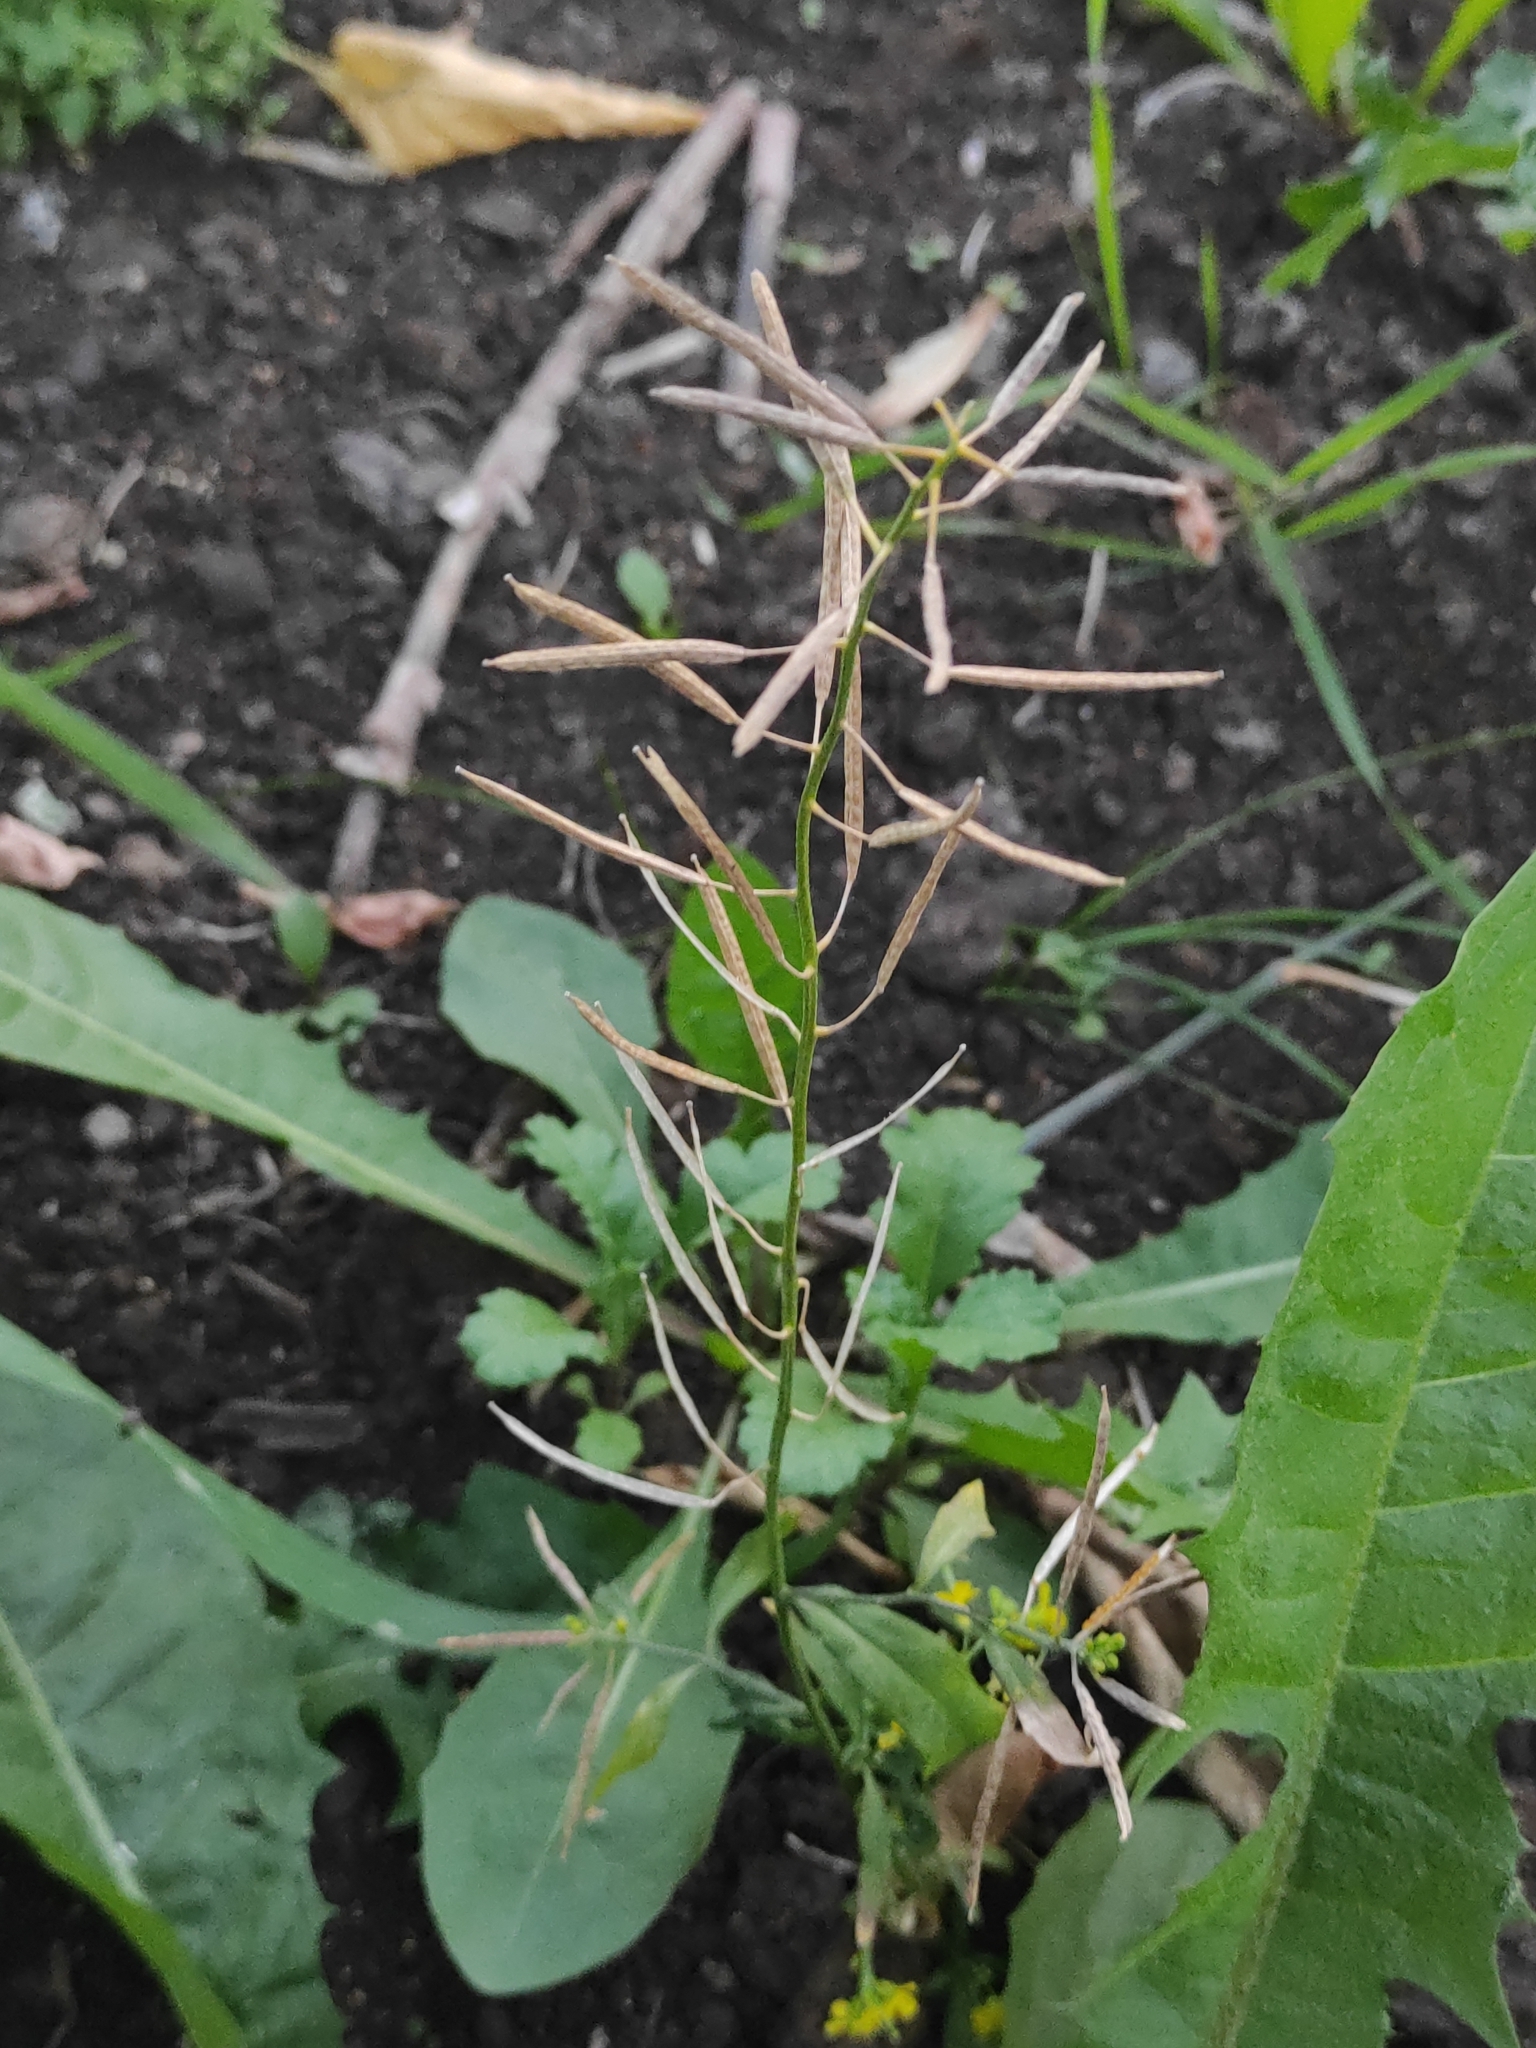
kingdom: Plantae
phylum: Tracheophyta
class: Magnoliopsida
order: Brassicales
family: Brassicaceae
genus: Erysimum
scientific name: Erysimum cheiranthoides
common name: Treacle mustard
